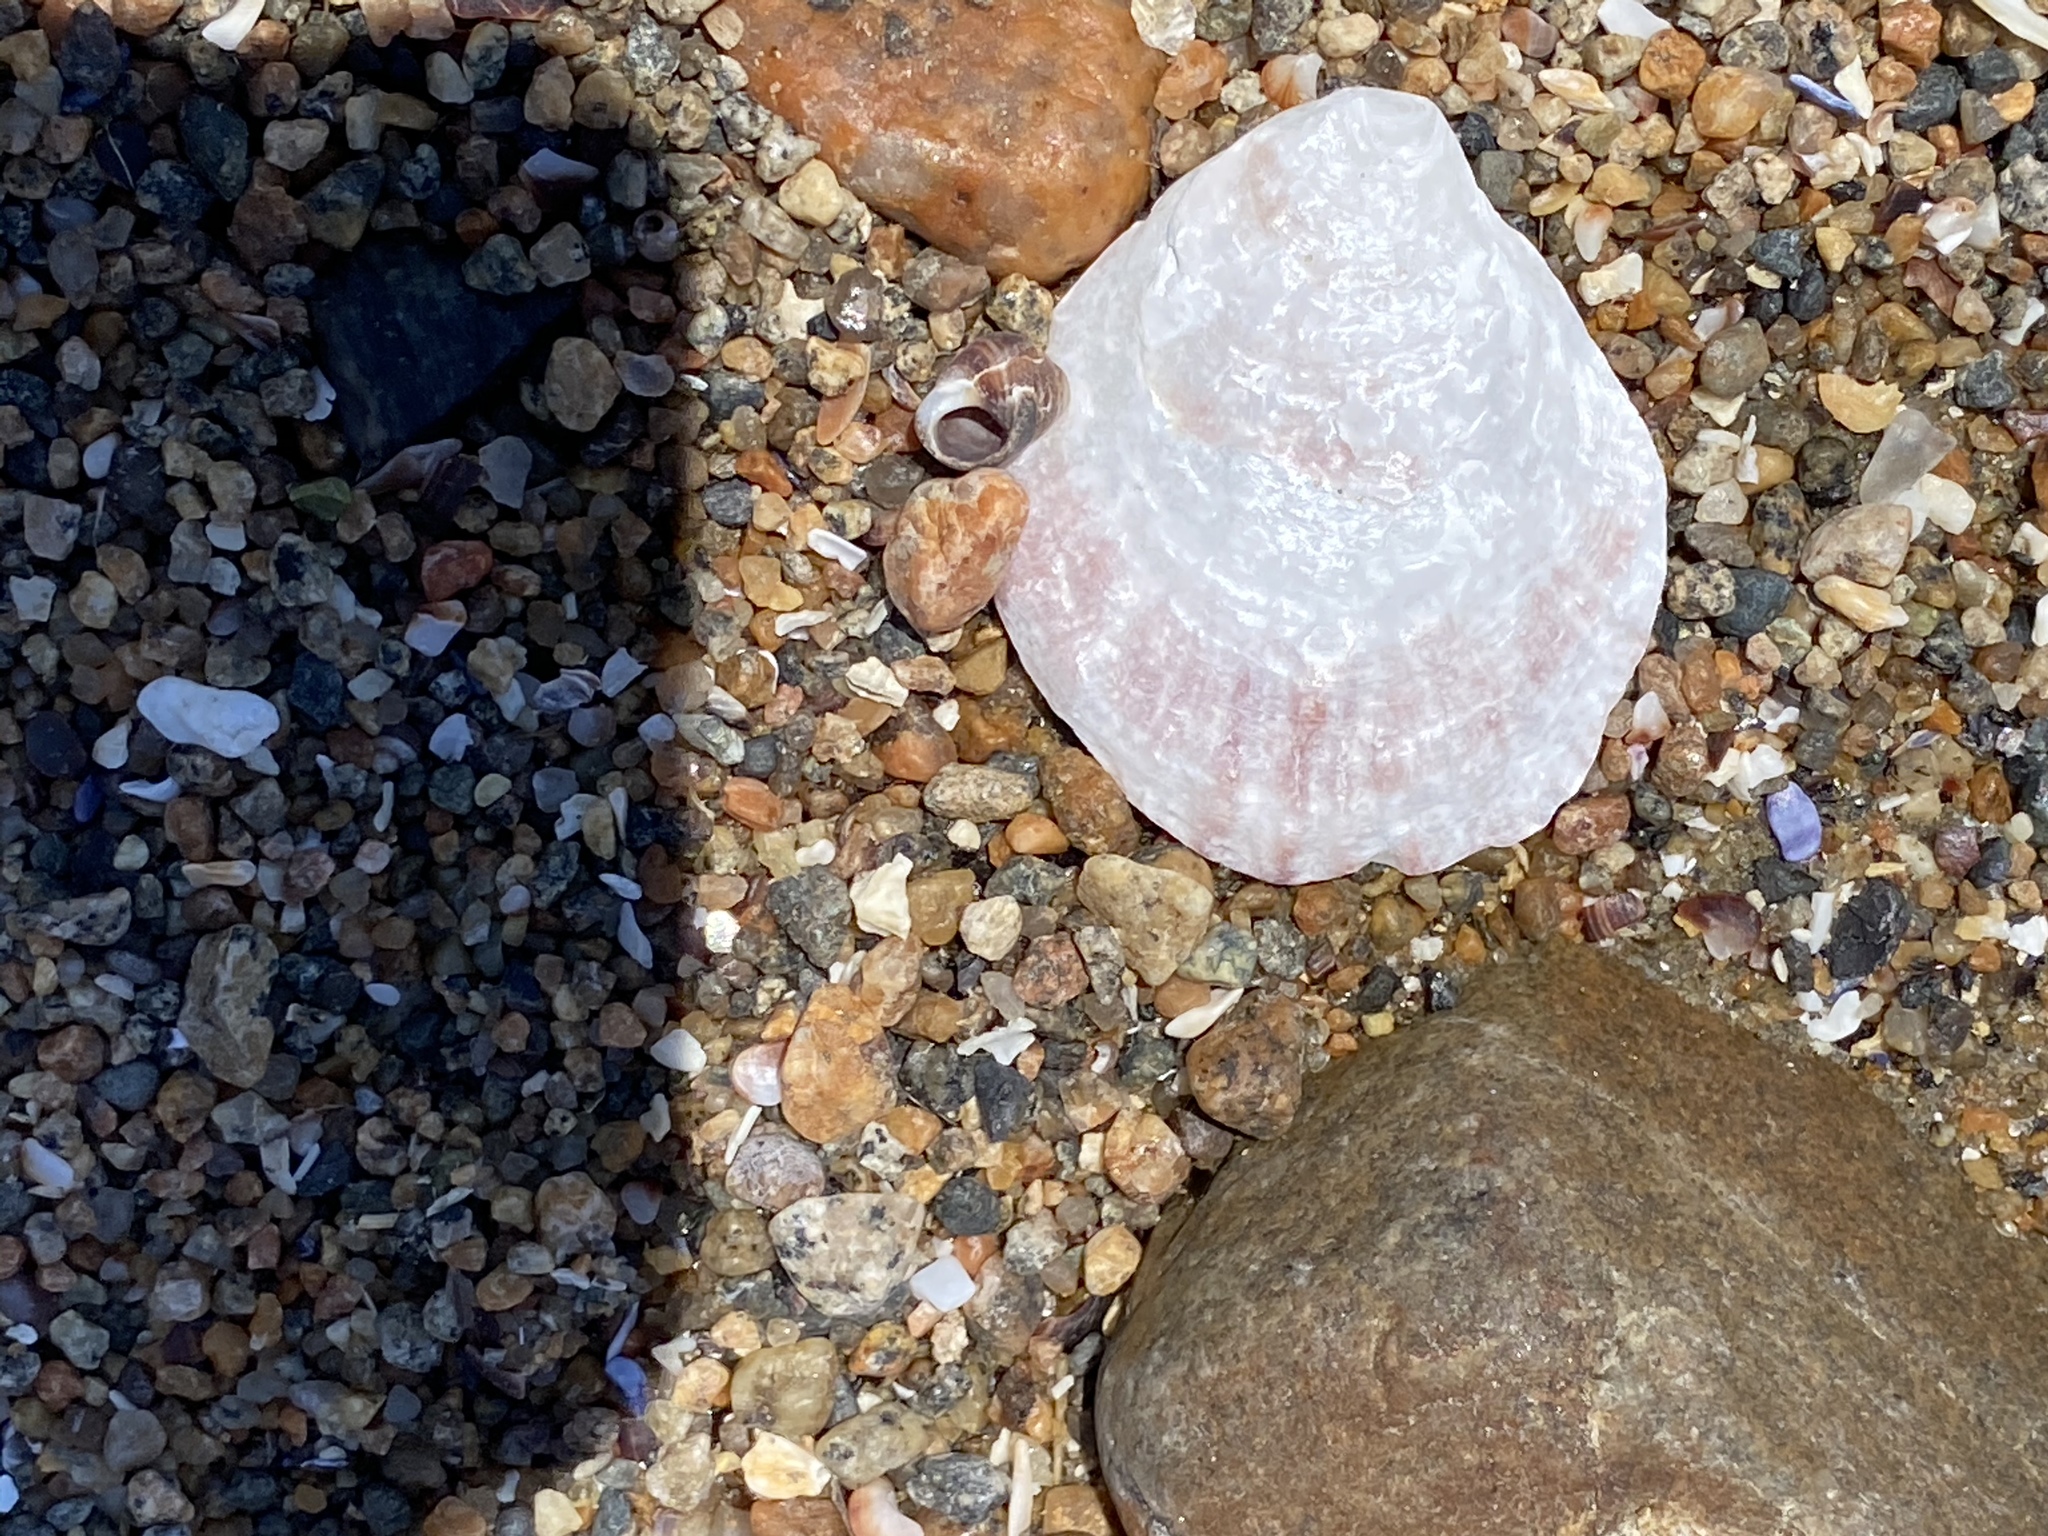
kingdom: Animalia
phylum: Mollusca
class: Bivalvia
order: Ostreida
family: Ostreidae
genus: Ostrea
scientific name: Ostrea edulis
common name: Flat oyster
